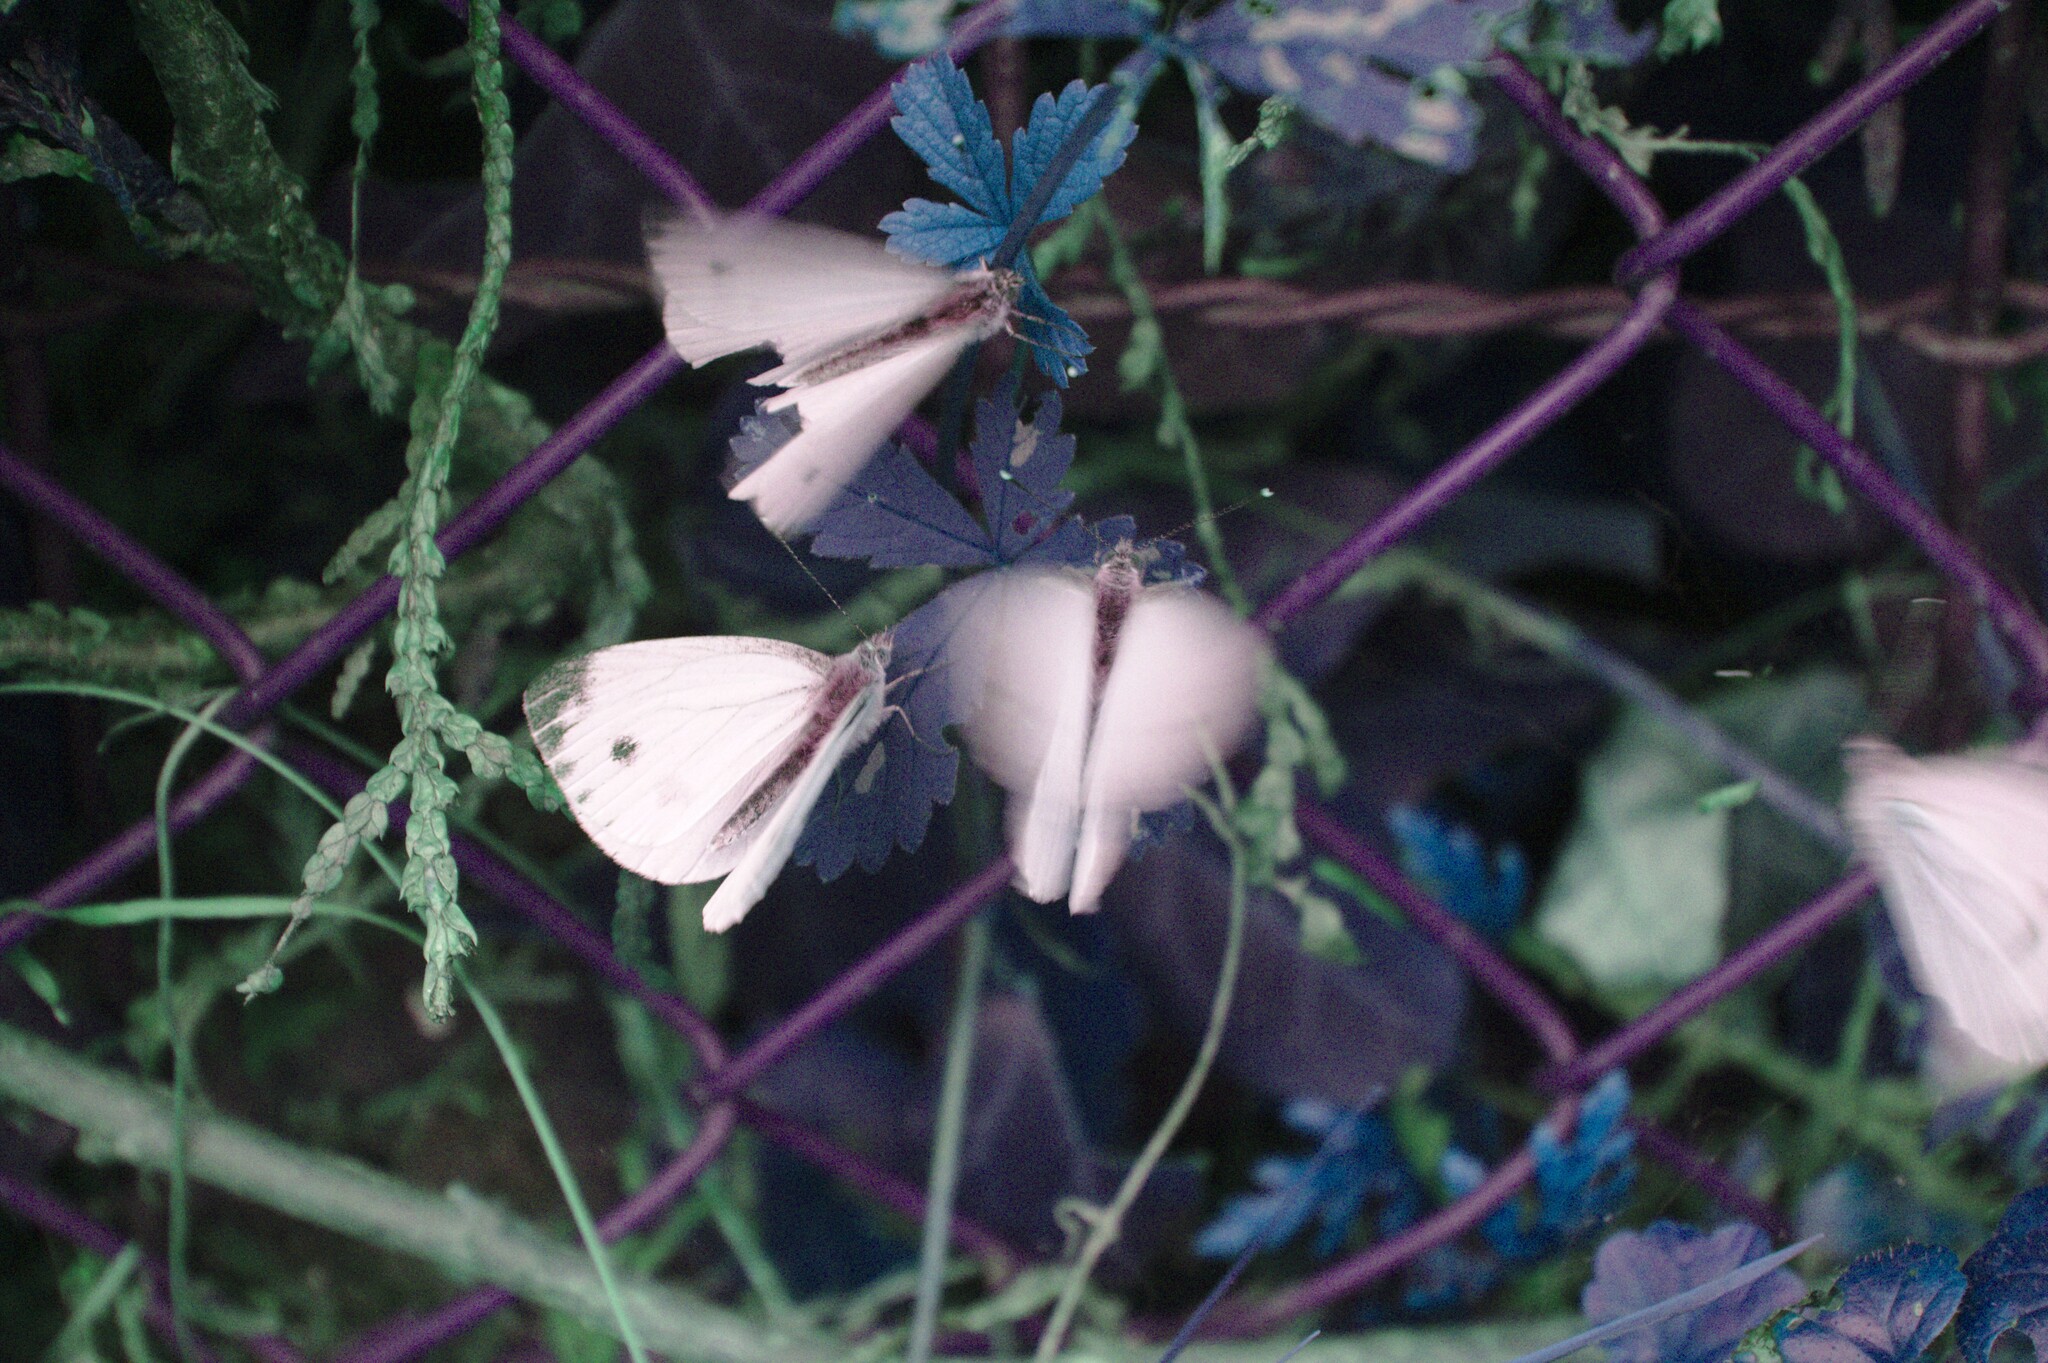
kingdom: Animalia
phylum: Arthropoda
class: Insecta
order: Lepidoptera
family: Pieridae
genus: Pieris
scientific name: Pieris napi
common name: Green-veined white
